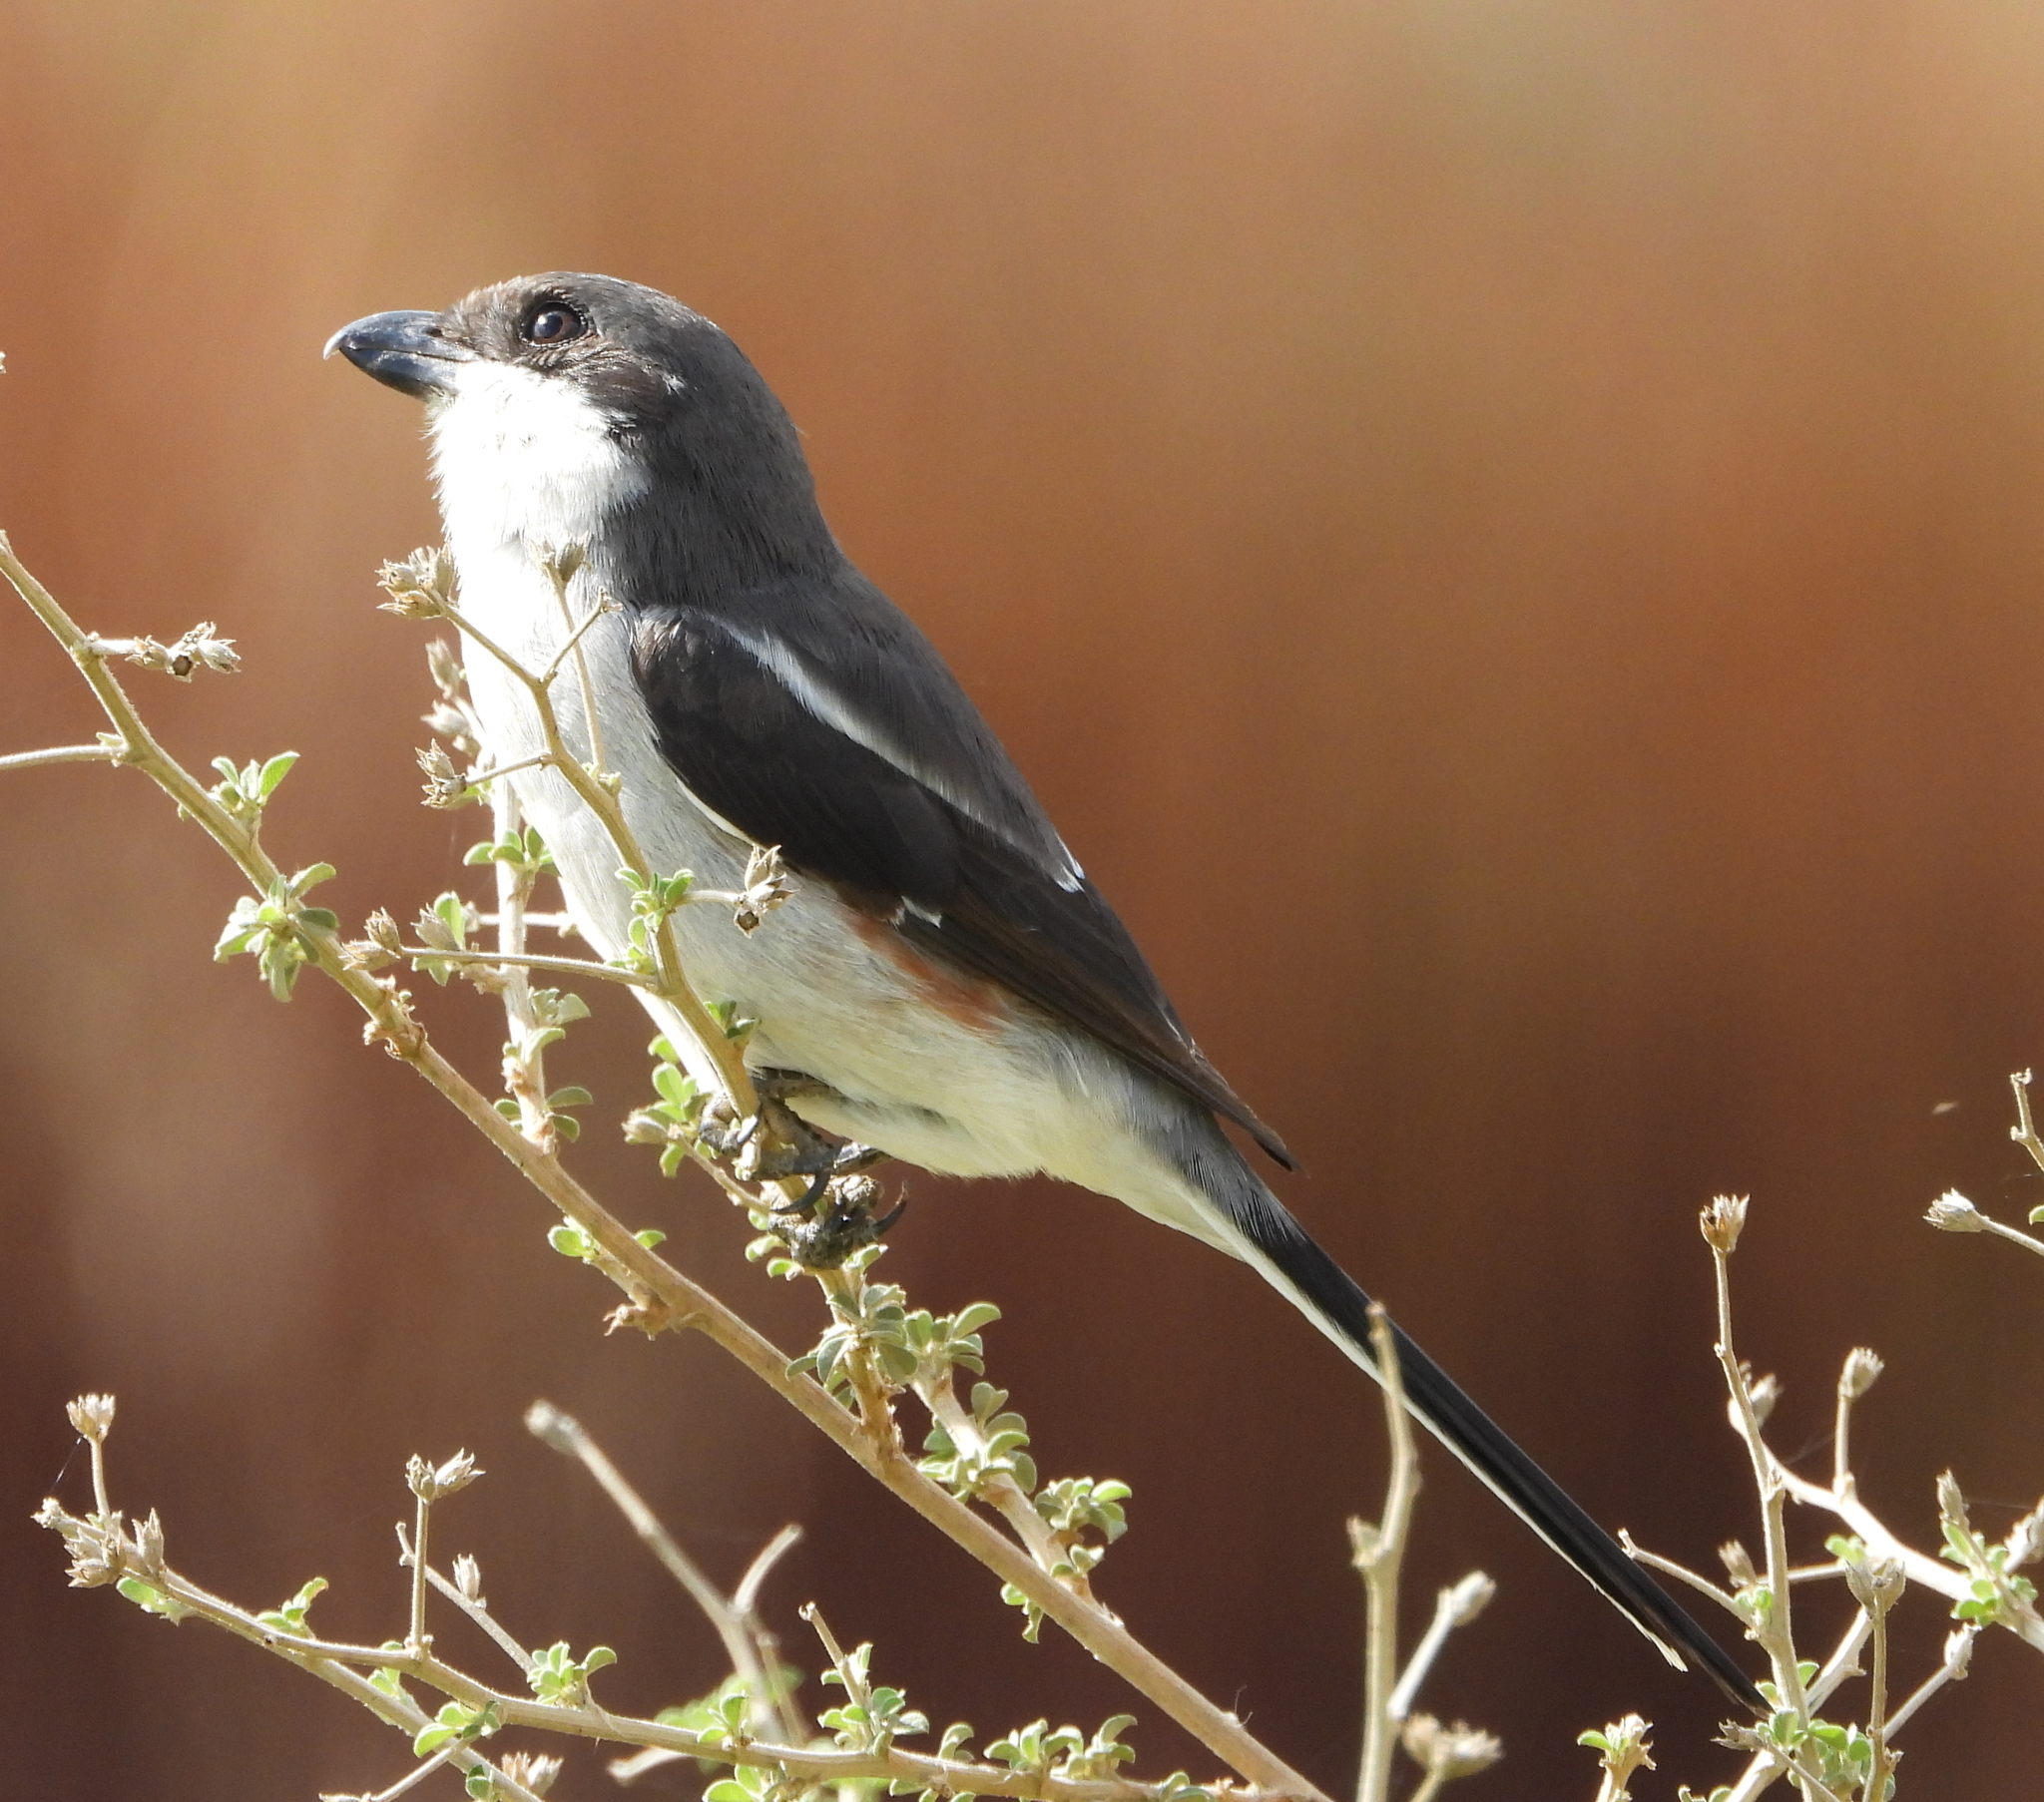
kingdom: Animalia
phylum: Chordata
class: Aves
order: Passeriformes
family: Laniidae
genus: Lanius
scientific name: Lanius collaris
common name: Southern fiscal
